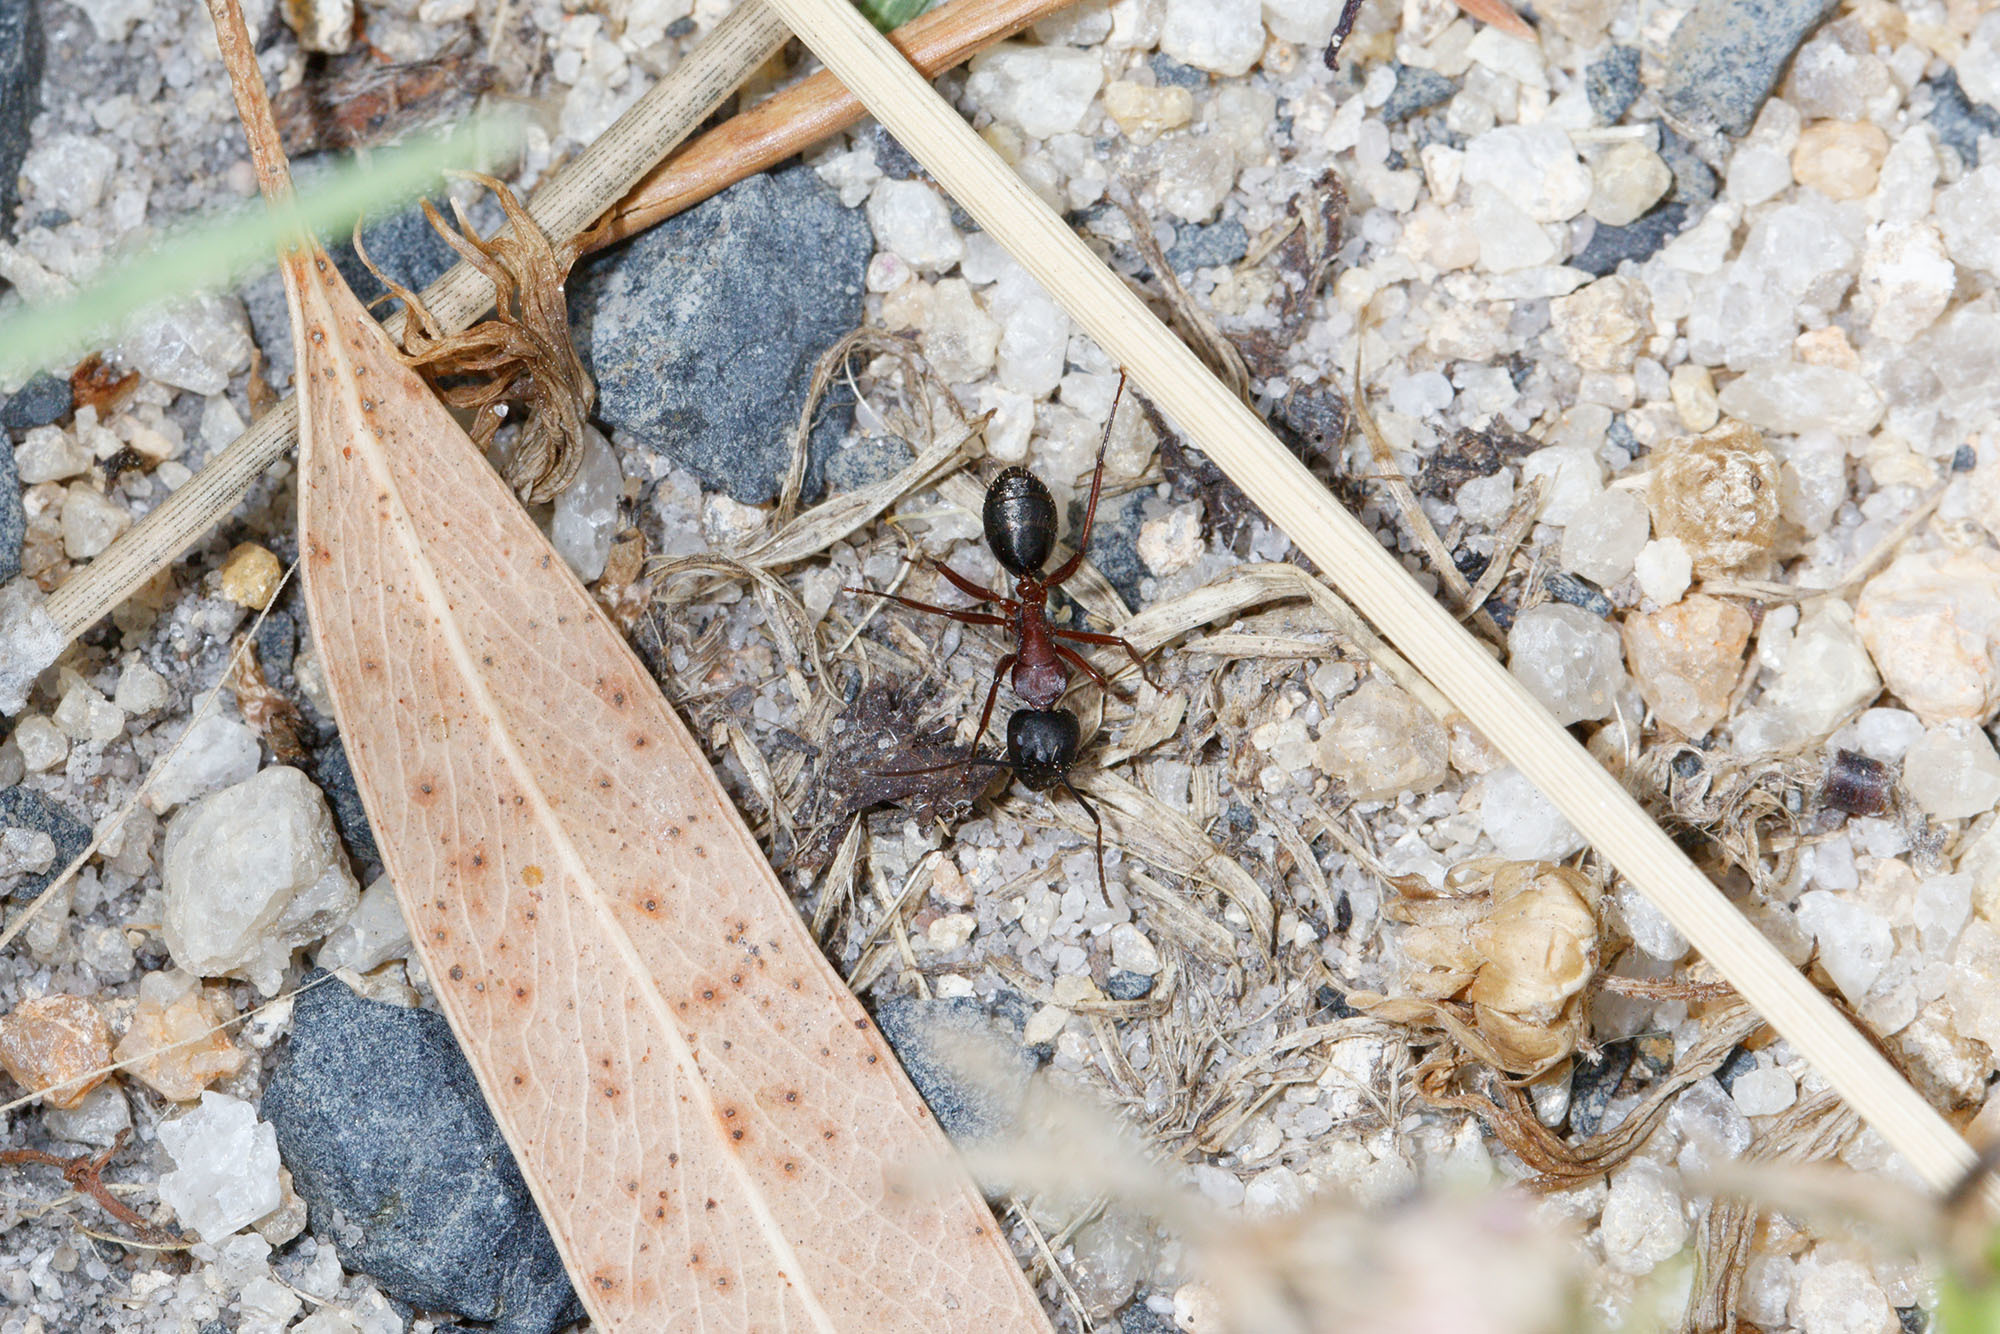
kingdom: Animalia
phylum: Arthropoda
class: Insecta
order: Hymenoptera
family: Formicidae
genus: Camponotus
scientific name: Camponotus innexus
